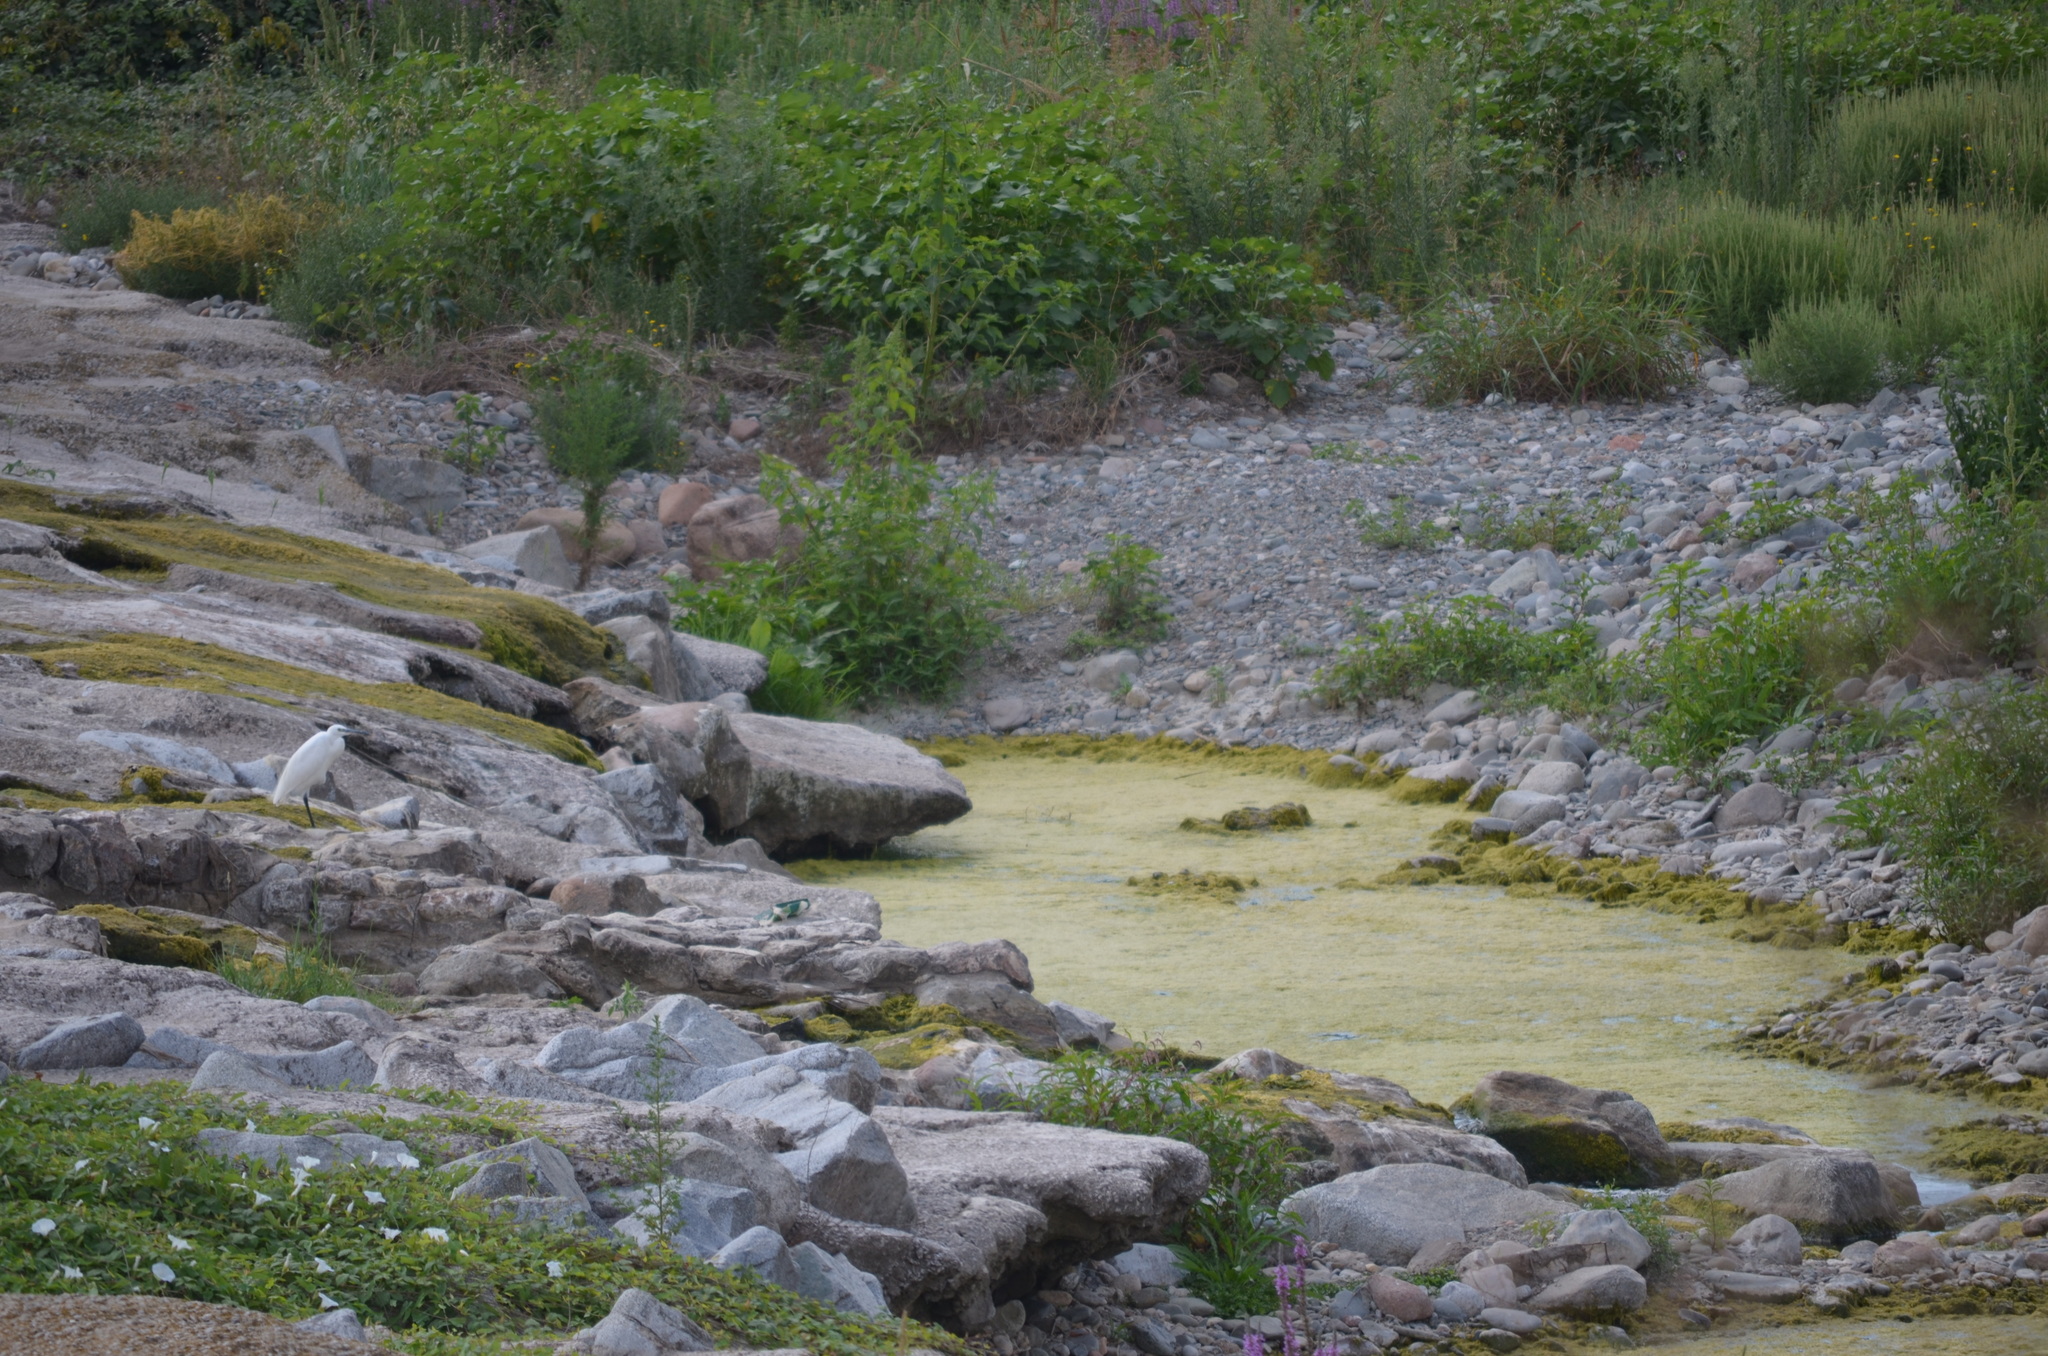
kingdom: Animalia
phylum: Chordata
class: Aves
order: Pelecaniformes
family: Ardeidae
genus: Egretta
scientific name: Egretta garzetta
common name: Little egret
